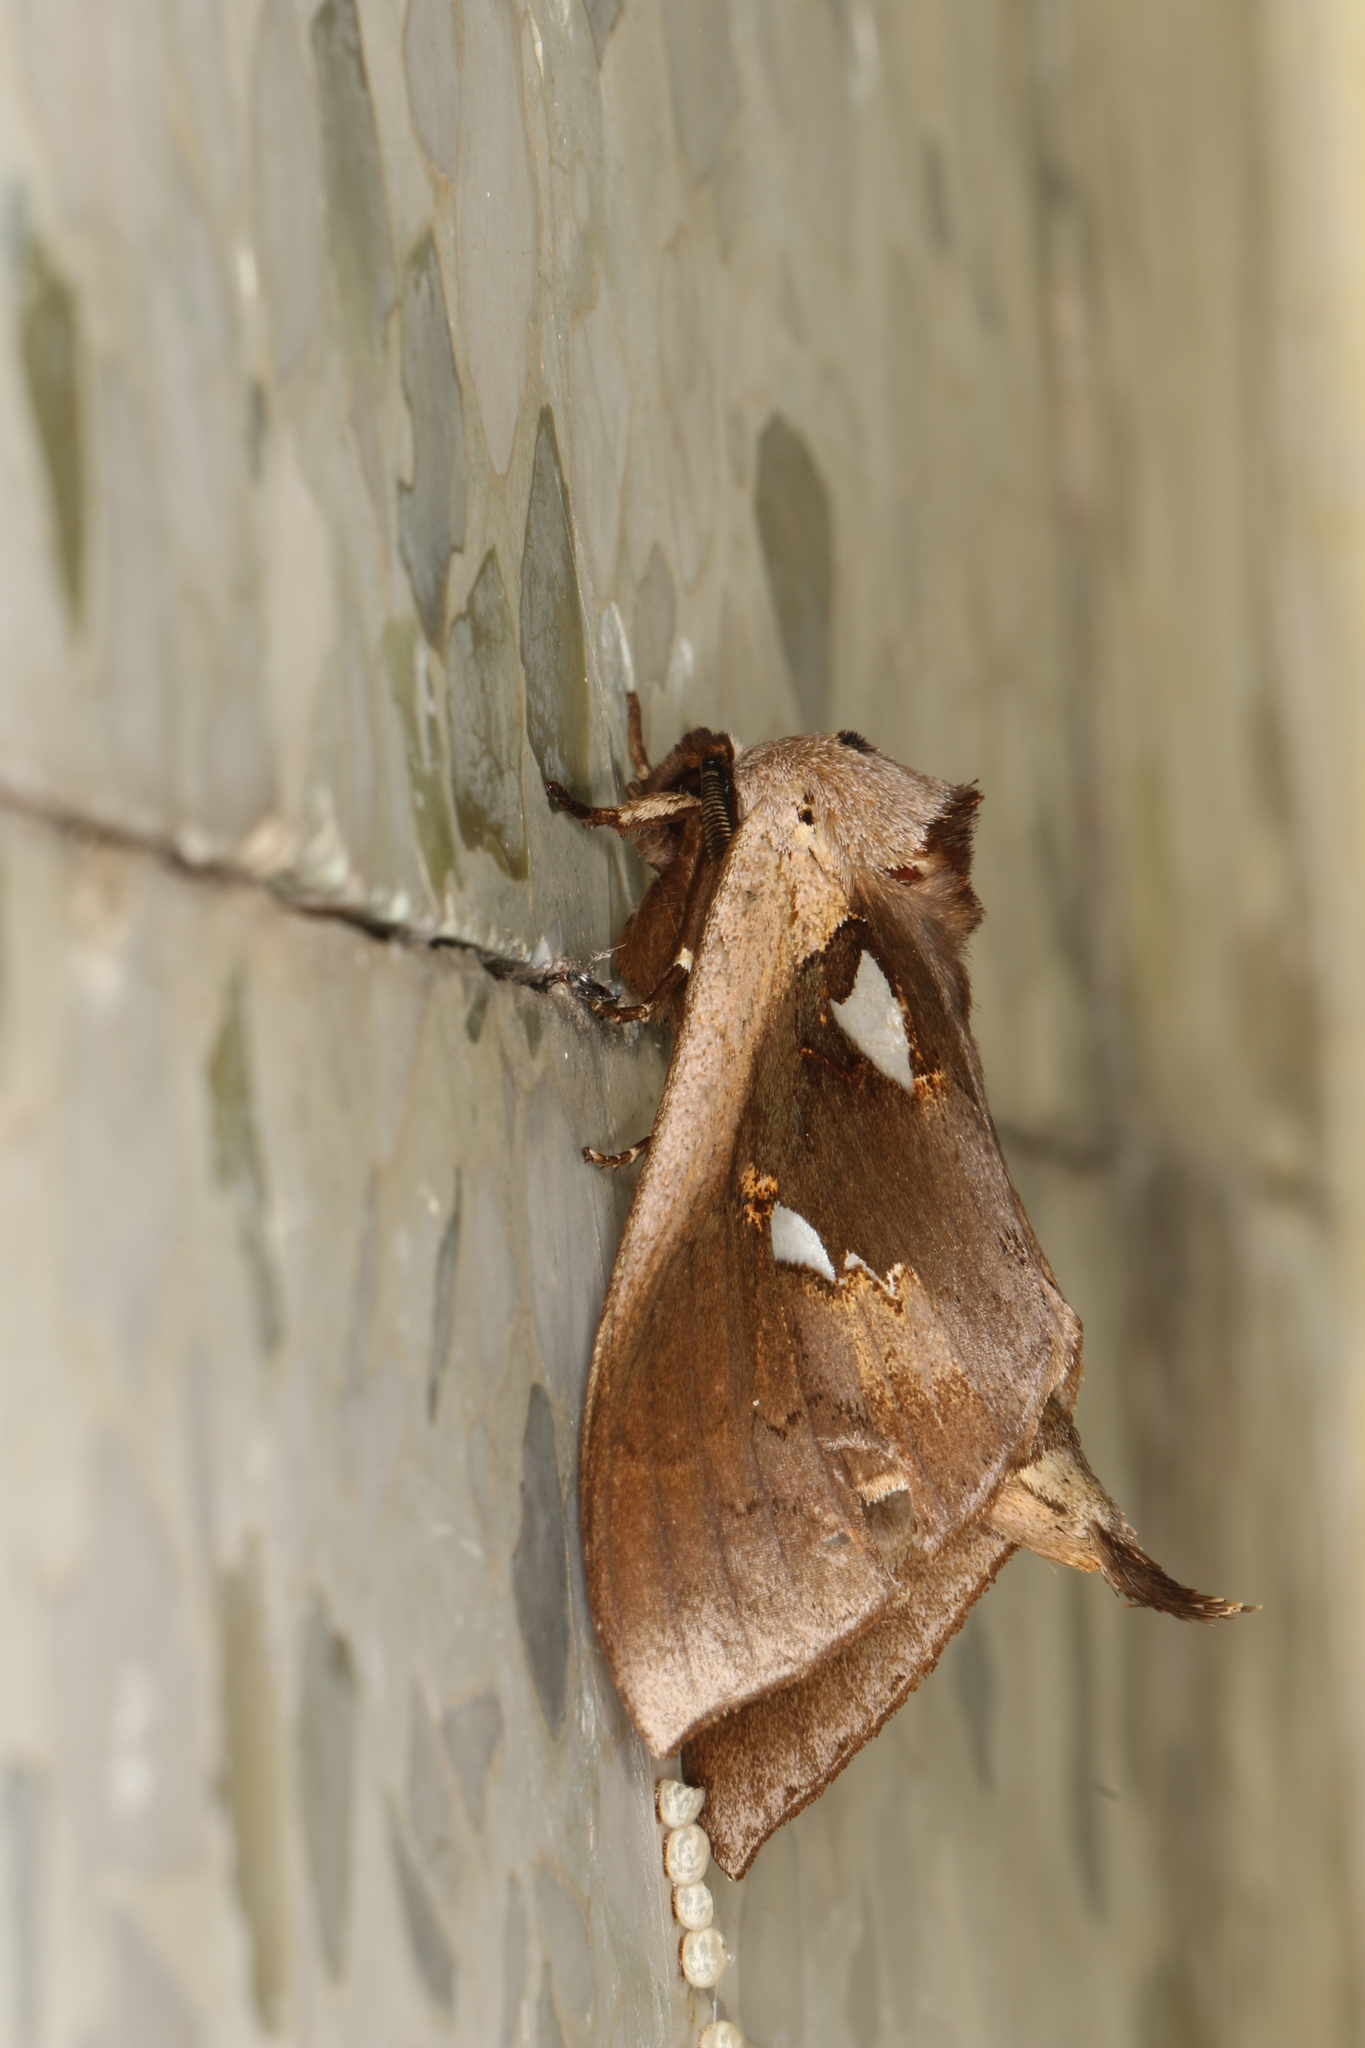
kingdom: Animalia
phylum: Arthropoda
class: Insecta
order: Lepidoptera
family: Notodontidae
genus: Tarsolepis
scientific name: Tarsolepis inscius
